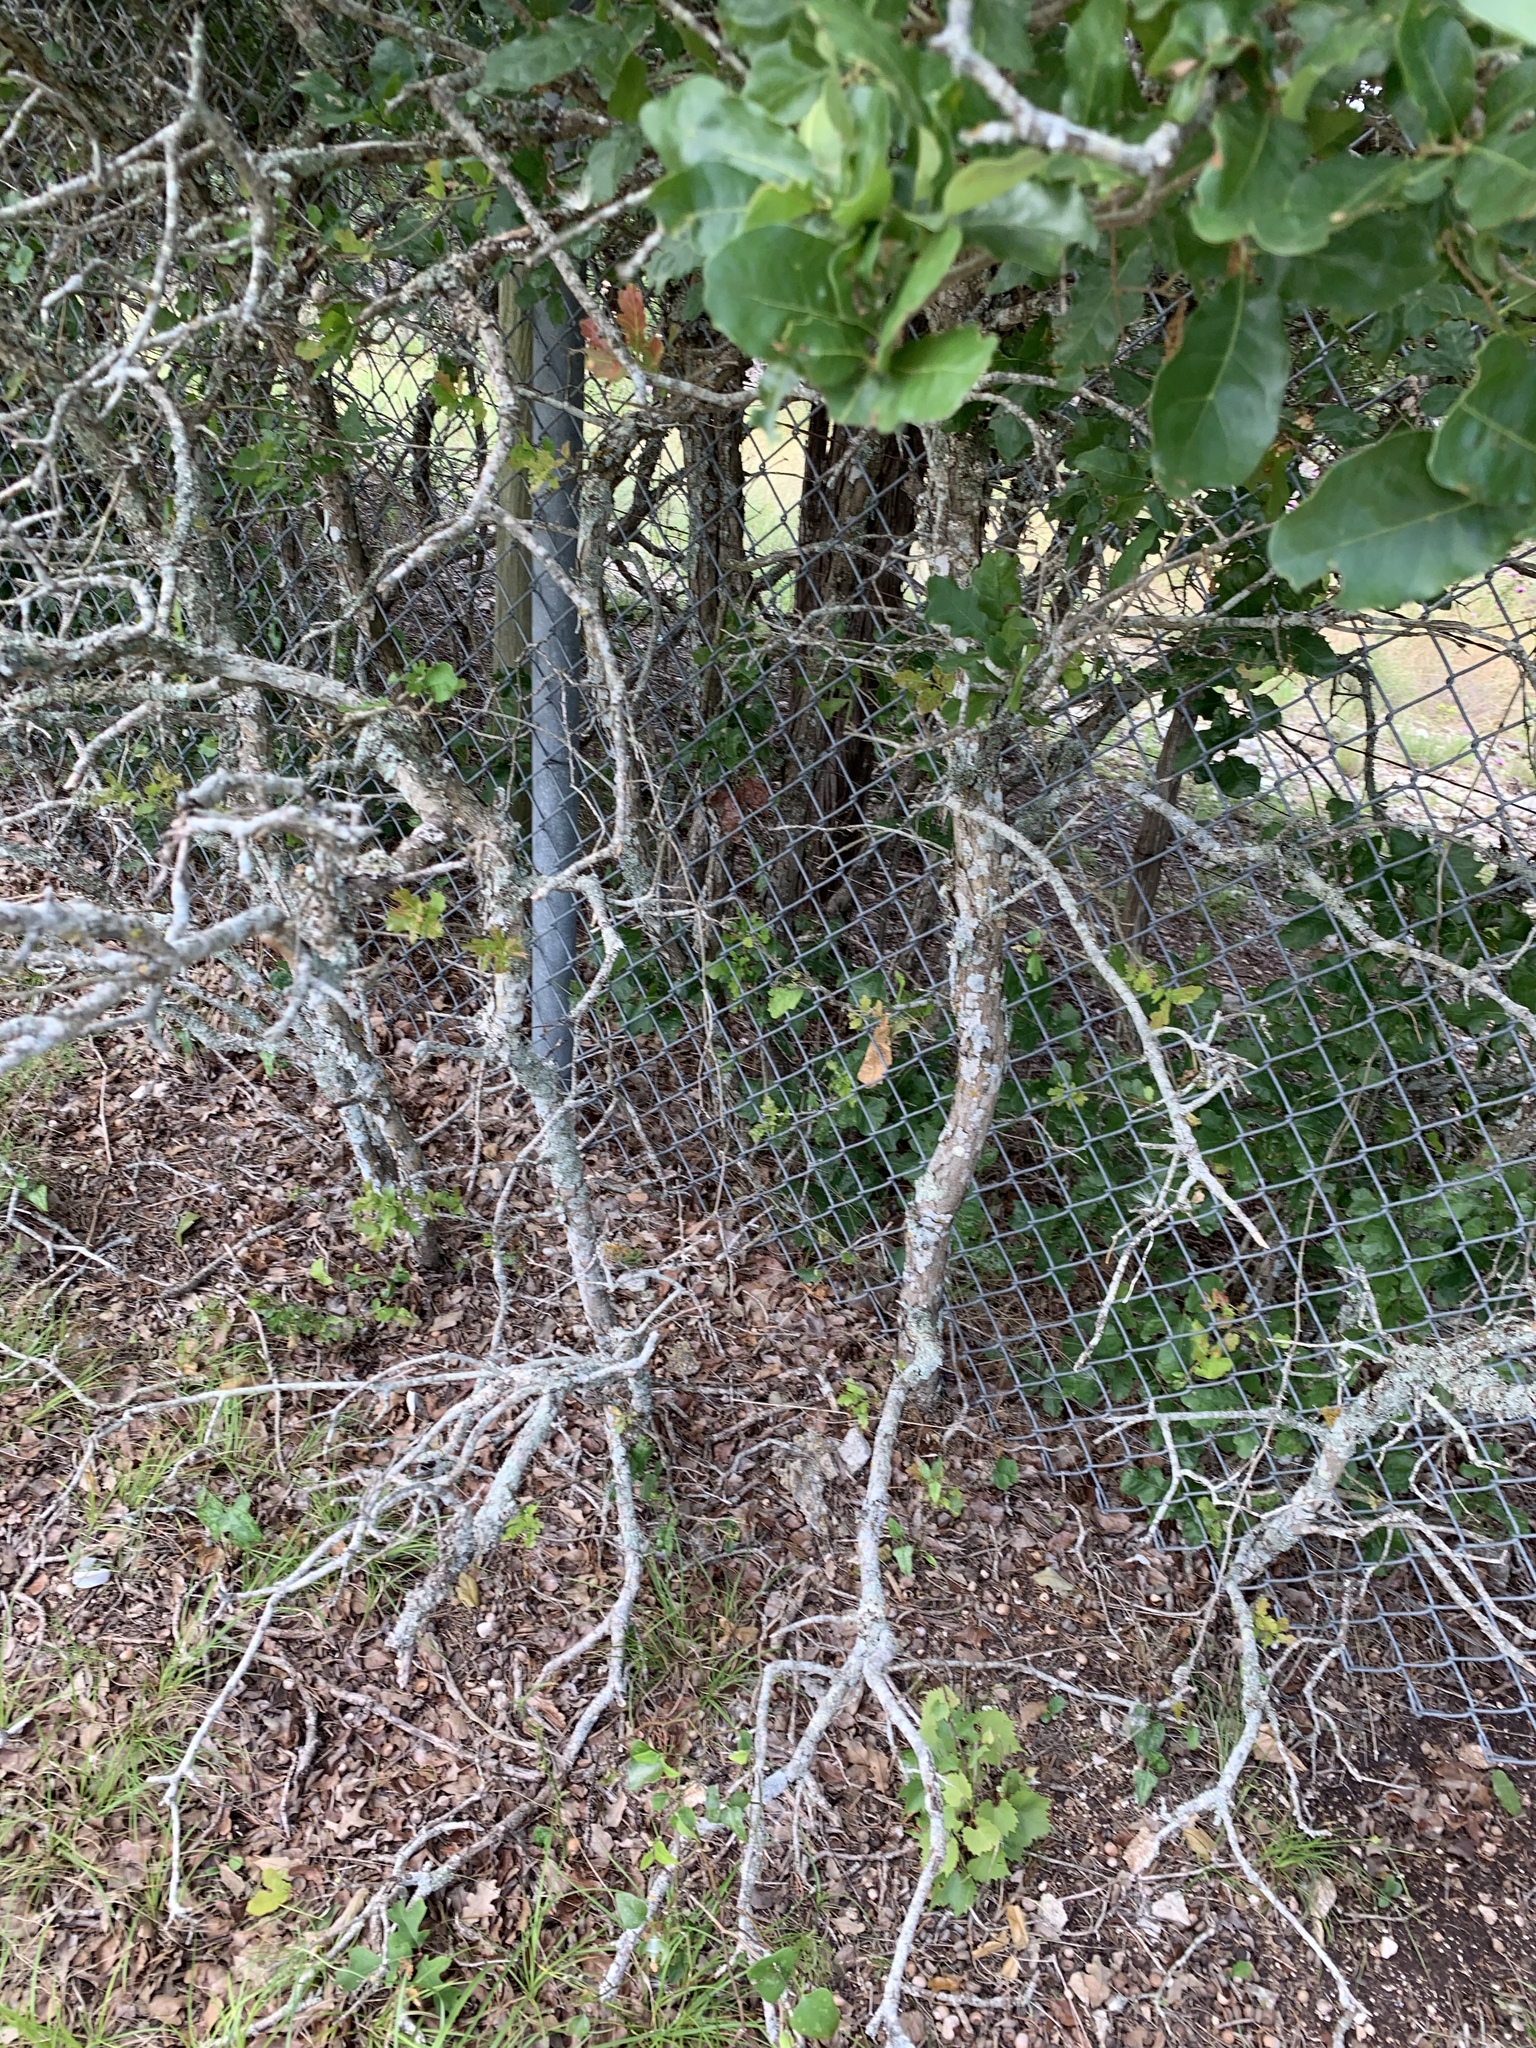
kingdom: Plantae
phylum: Tracheophyta
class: Magnoliopsida
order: Fagales
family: Fagaceae
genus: Quercus
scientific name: Quercus sinuata
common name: Durand oak
